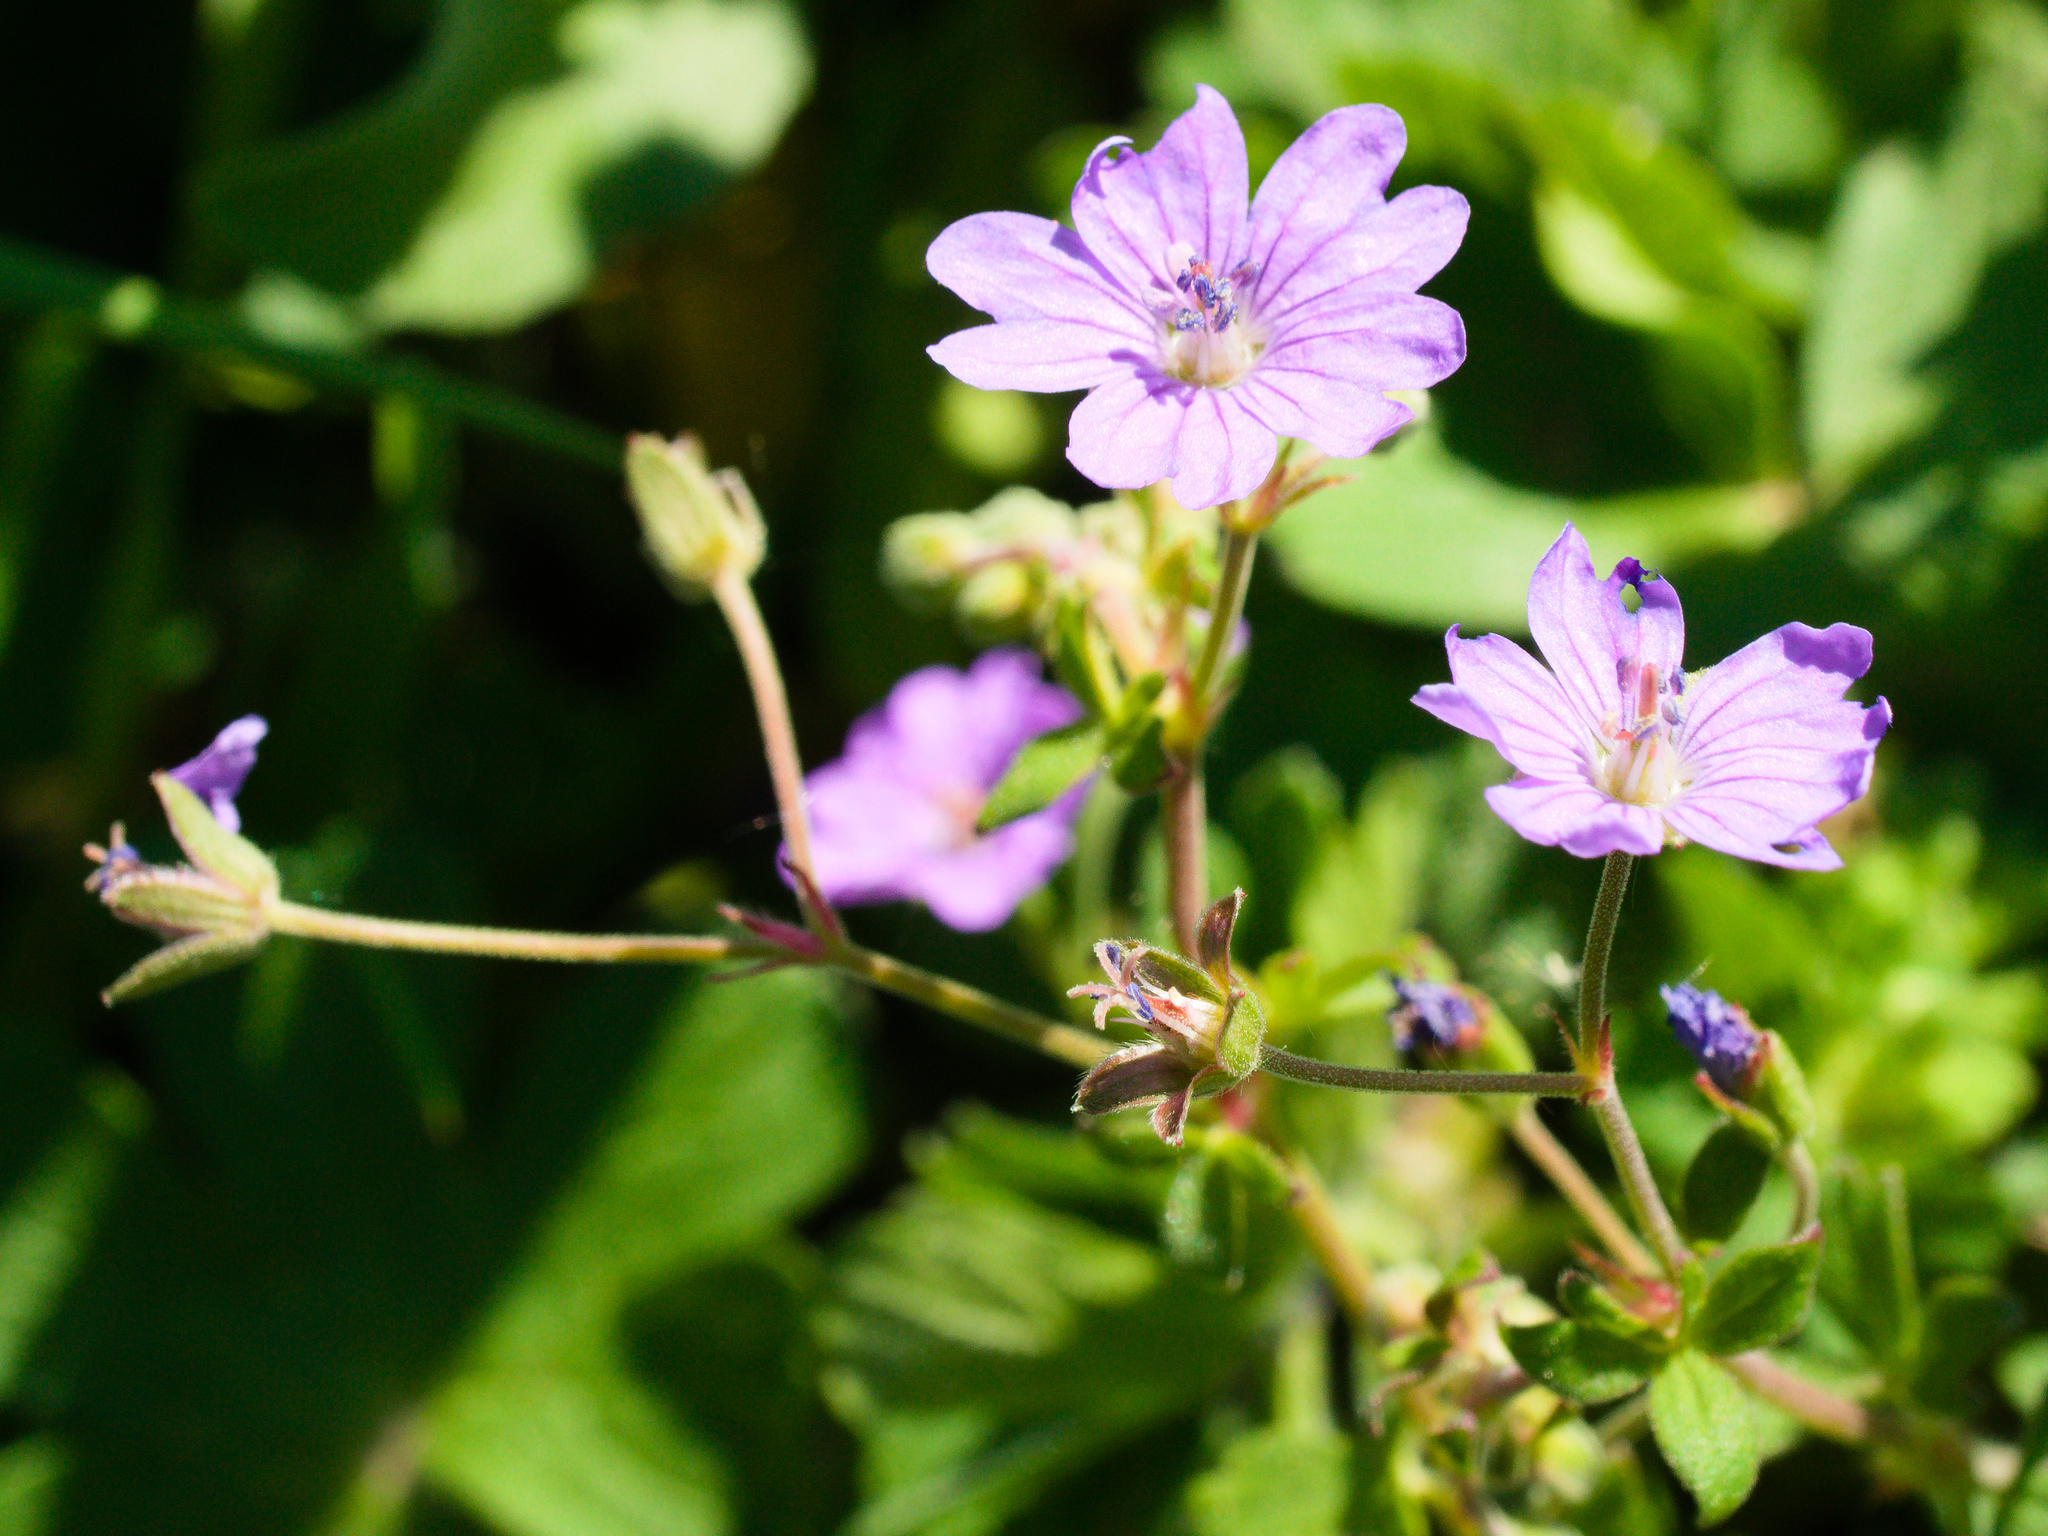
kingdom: Plantae
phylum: Tracheophyta
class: Magnoliopsida
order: Geraniales
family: Geraniaceae
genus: Geranium
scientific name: Geranium pyrenaicum
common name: Hedgerow crane's-bill
